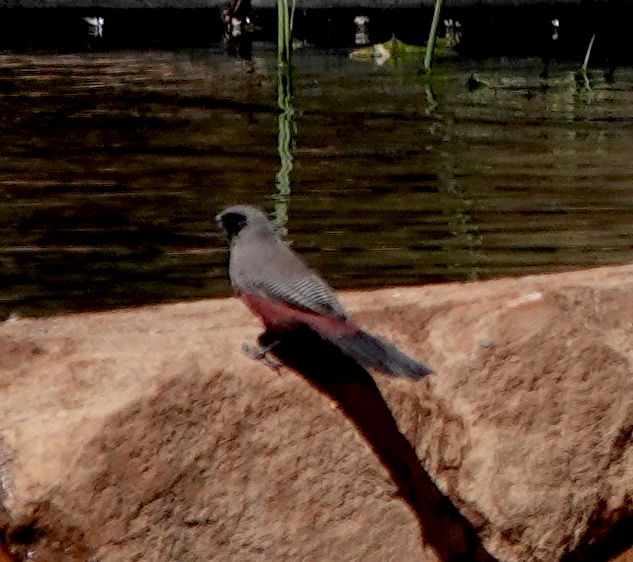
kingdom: Animalia
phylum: Chordata
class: Aves
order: Passeriformes
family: Estrildidae
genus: Estrilda
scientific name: Estrilda erythronotos
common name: Black-faced waxbill
